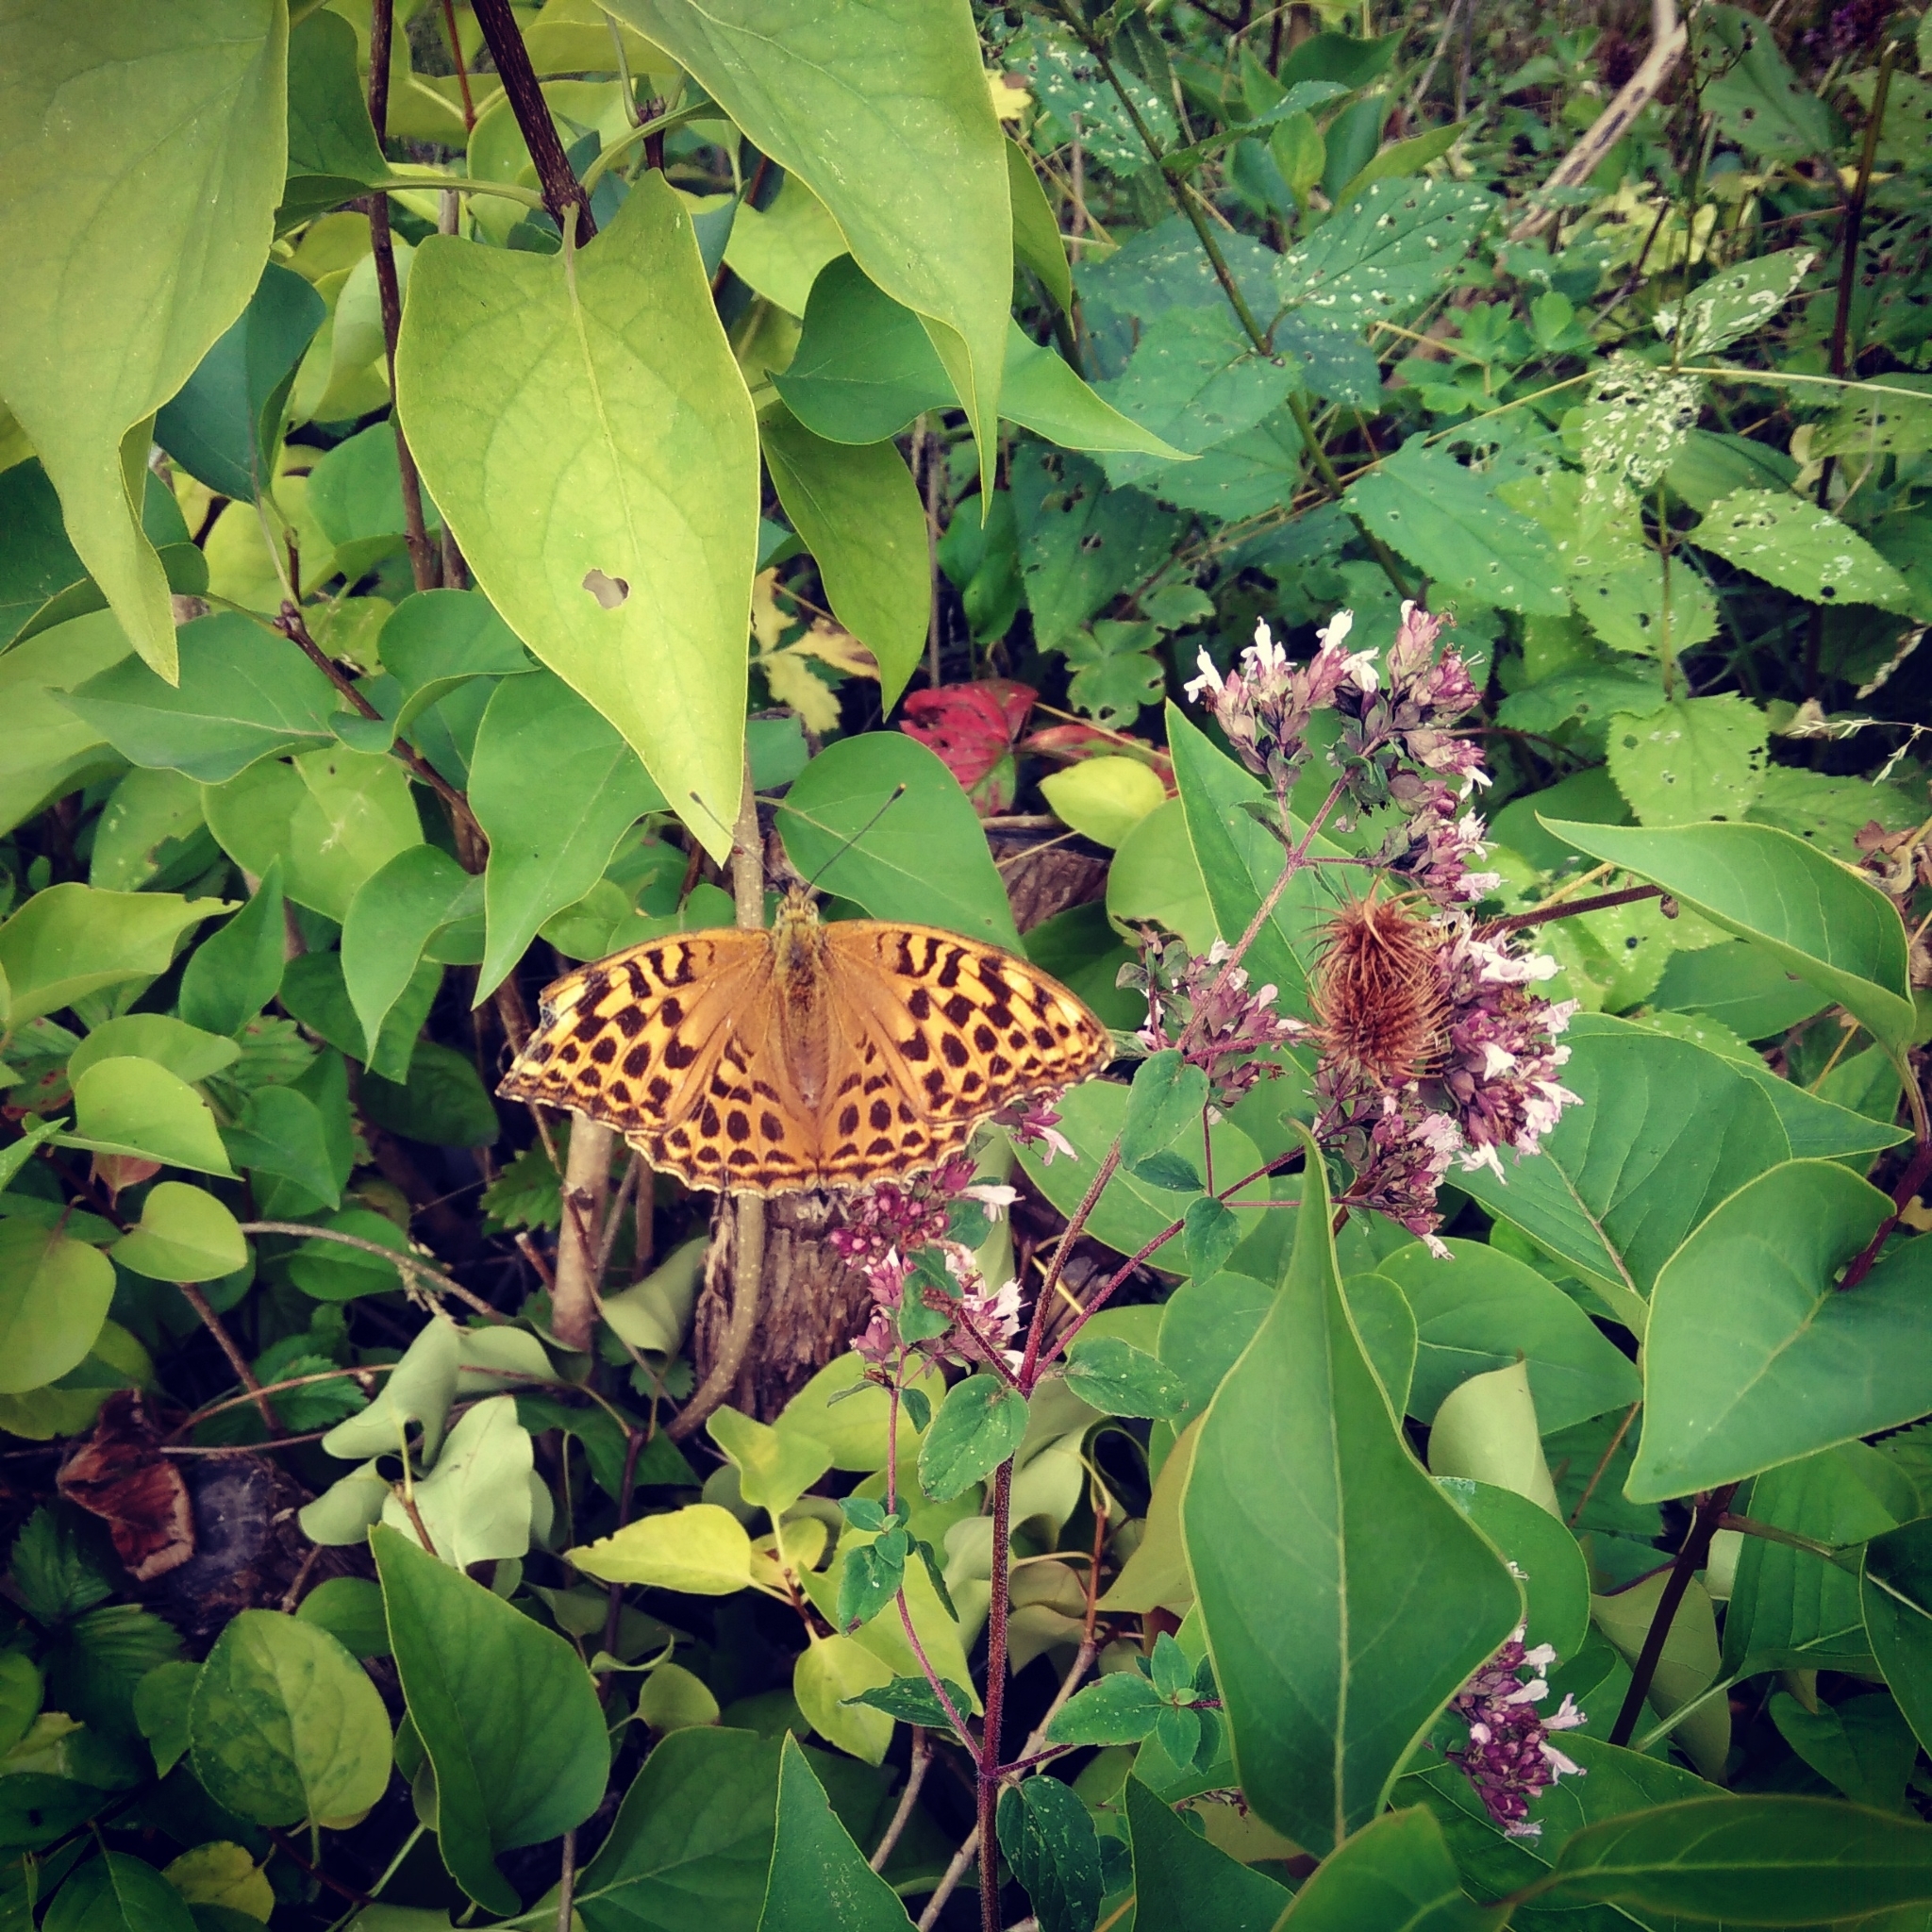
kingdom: Animalia
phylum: Arthropoda
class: Insecta
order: Lepidoptera
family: Nymphalidae
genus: Argynnis
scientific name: Argynnis paphia
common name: Silver-washed fritillary
